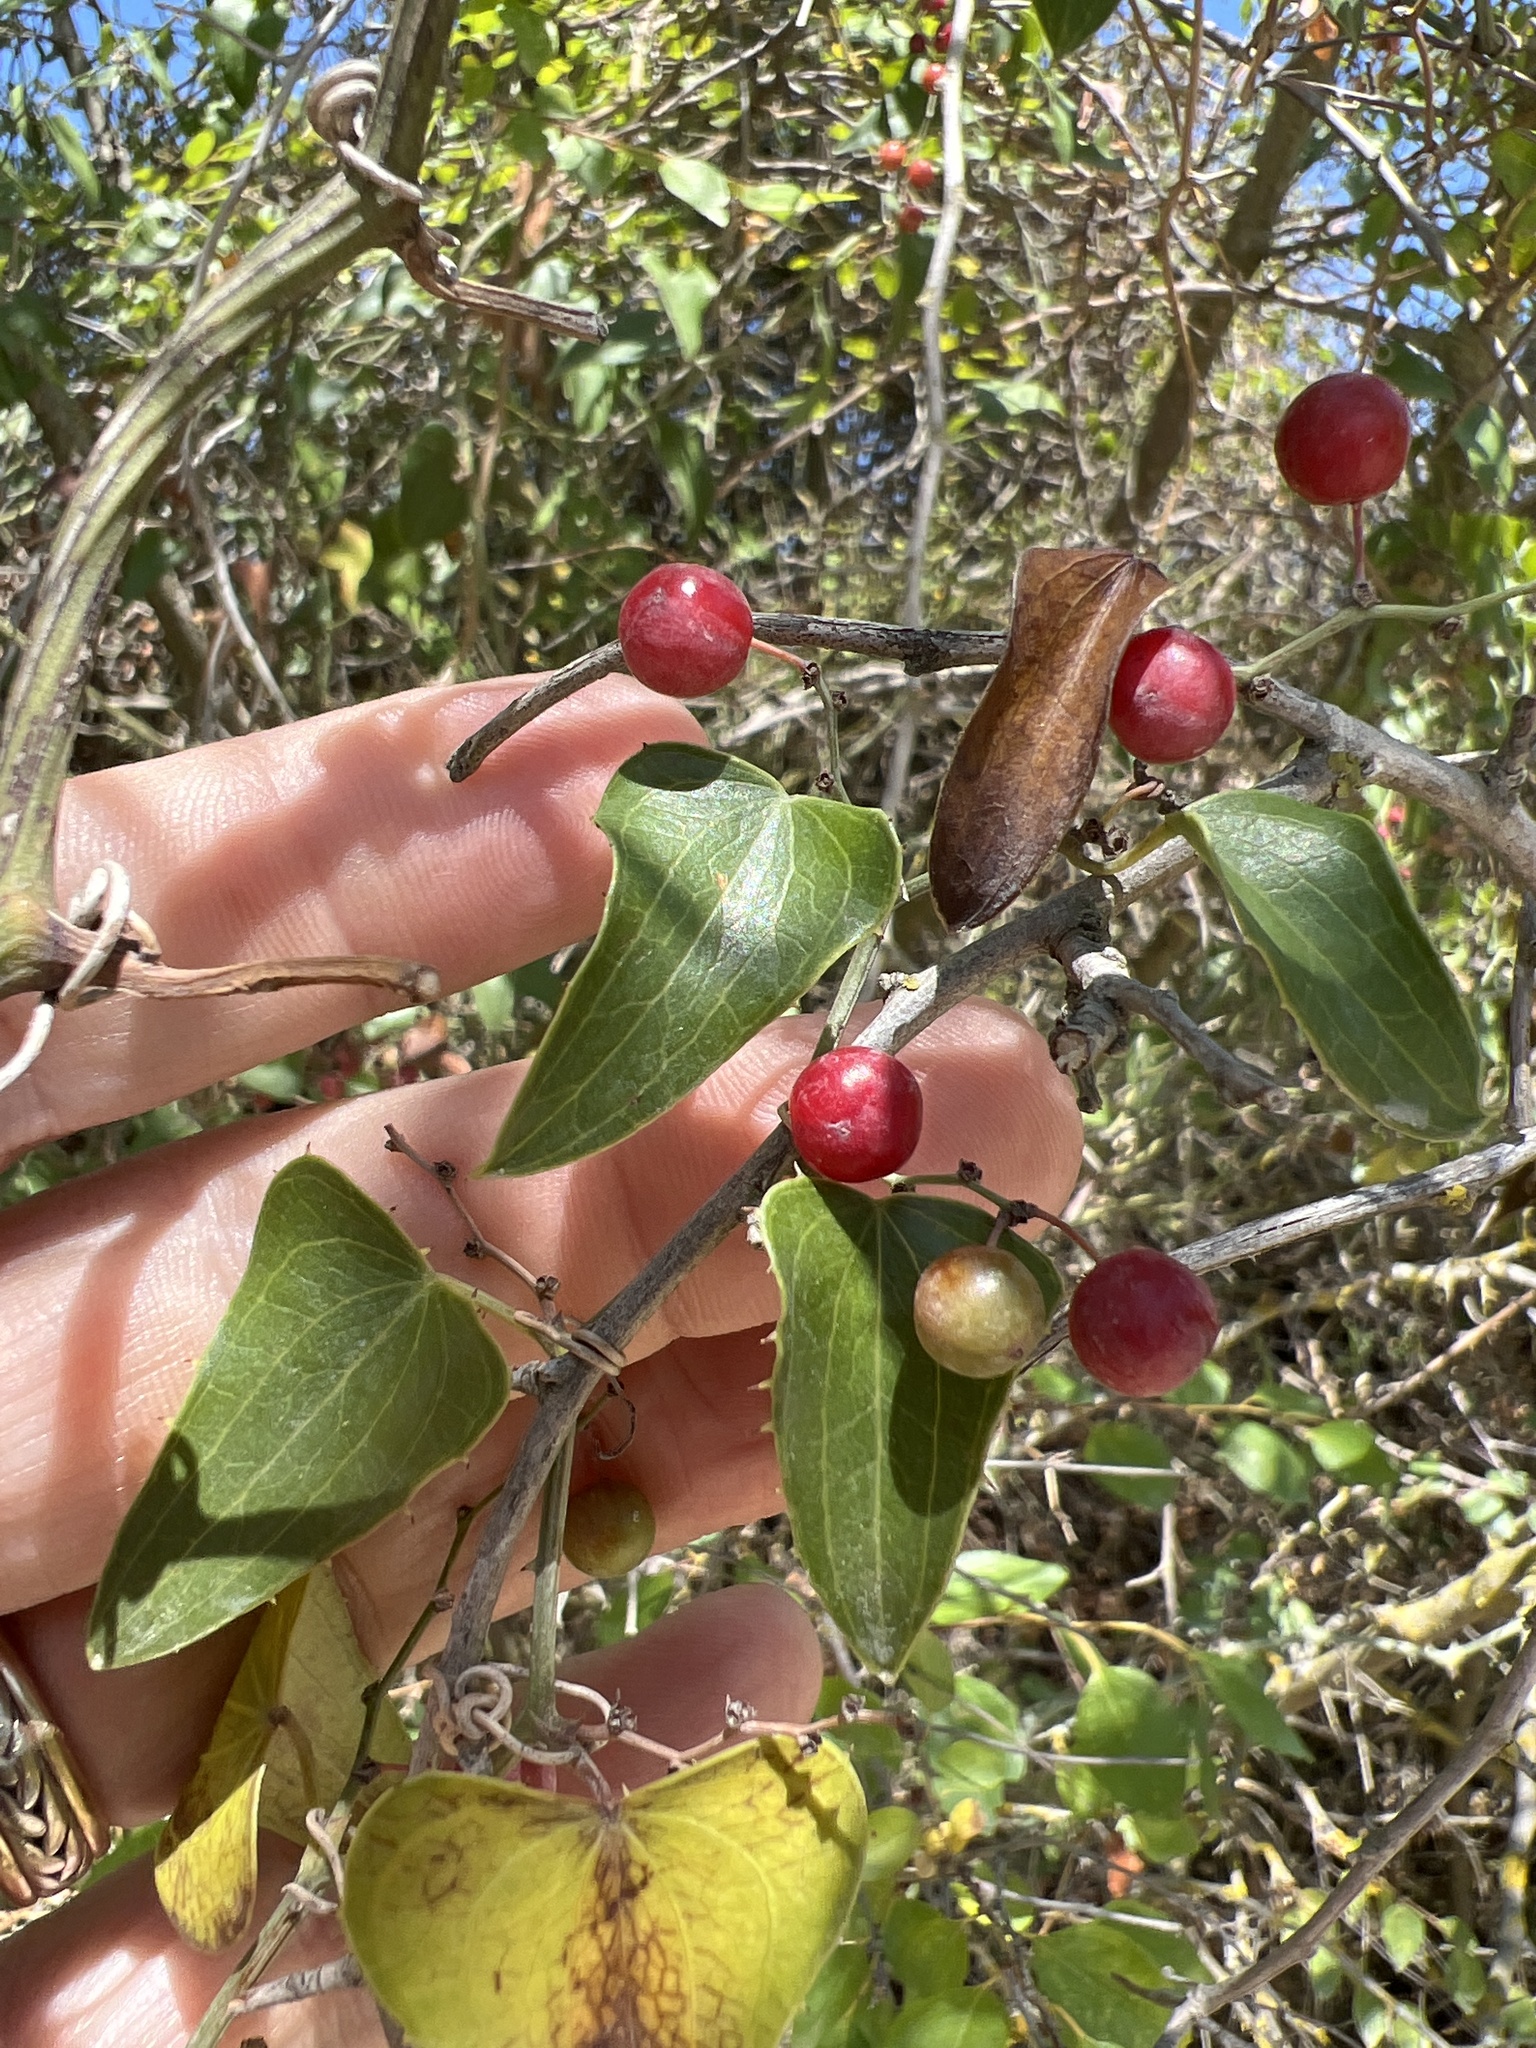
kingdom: Plantae
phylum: Tracheophyta
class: Liliopsida
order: Liliales
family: Smilacaceae
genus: Smilax
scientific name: Smilax aspera
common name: Common smilax
